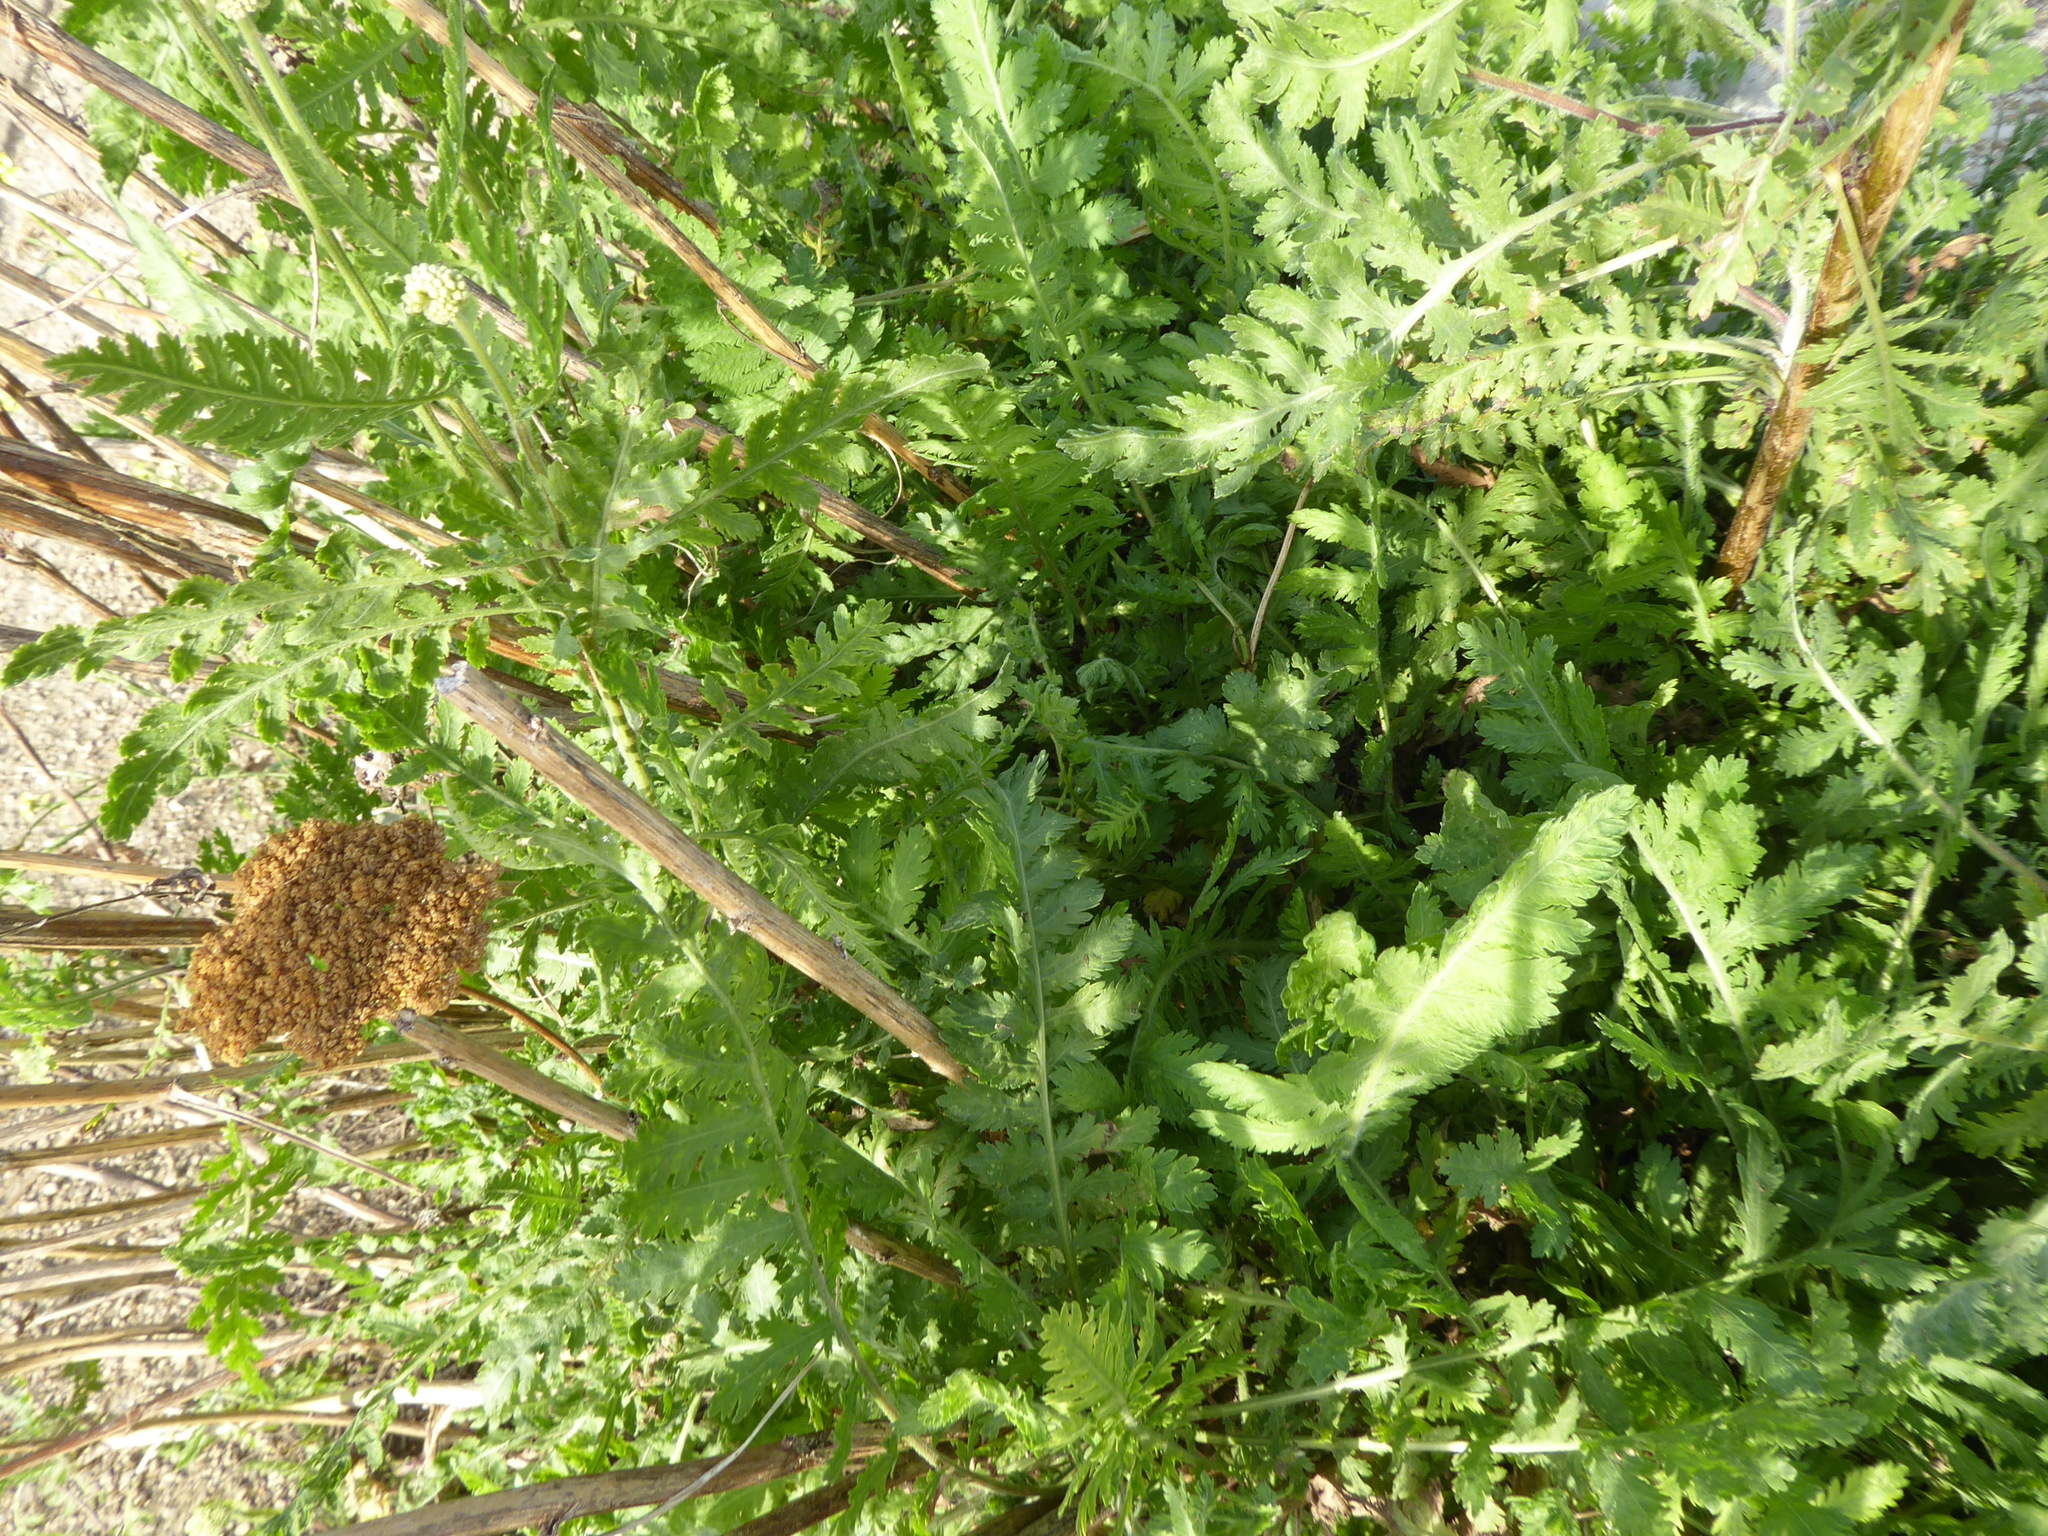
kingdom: Plantae
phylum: Tracheophyta
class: Magnoliopsida
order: Asterales
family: Asteraceae
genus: Achillea
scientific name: Achillea filipendulina
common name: Fernleaf yarrow
